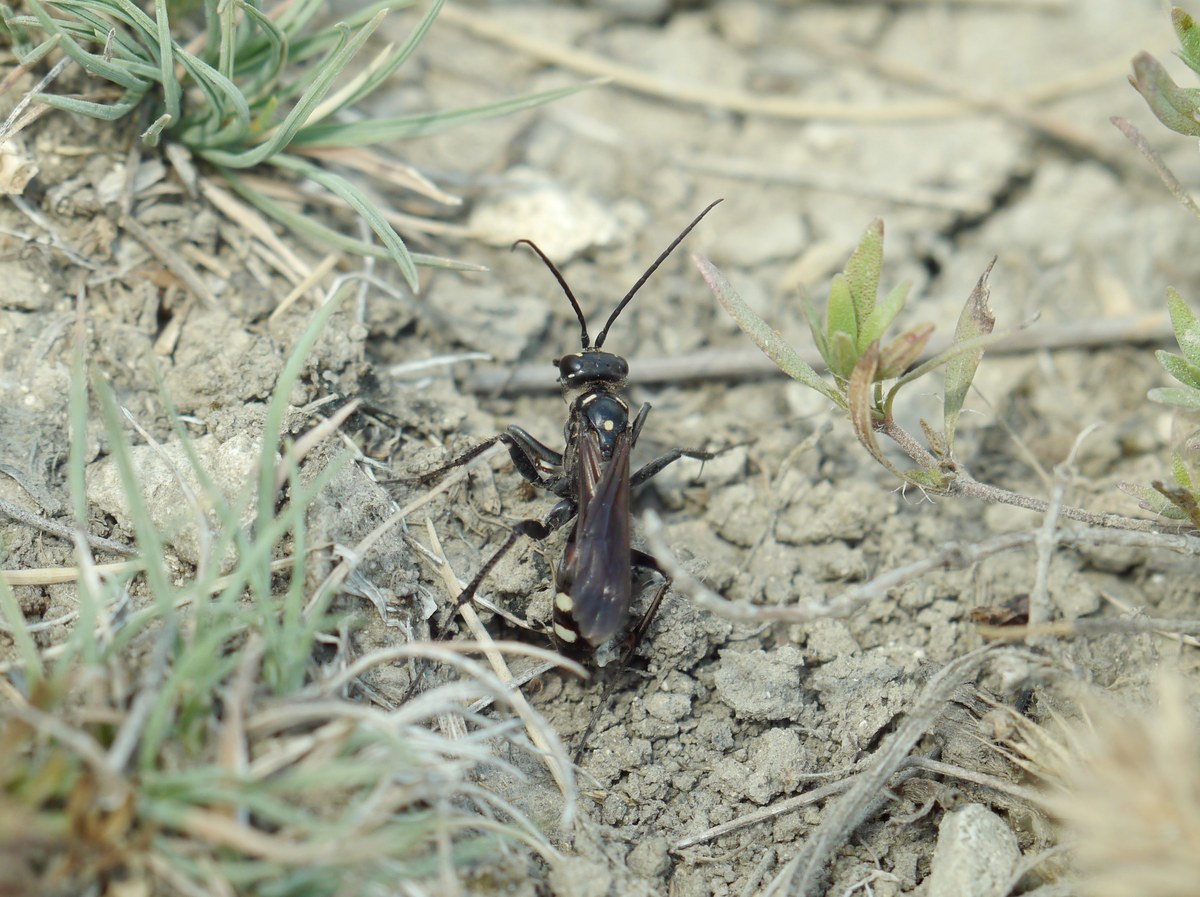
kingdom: Animalia
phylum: Arthropoda
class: Insecta
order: Hymenoptera
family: Pompilidae
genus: Cryptocheilus
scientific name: Cryptocheilus egregius
